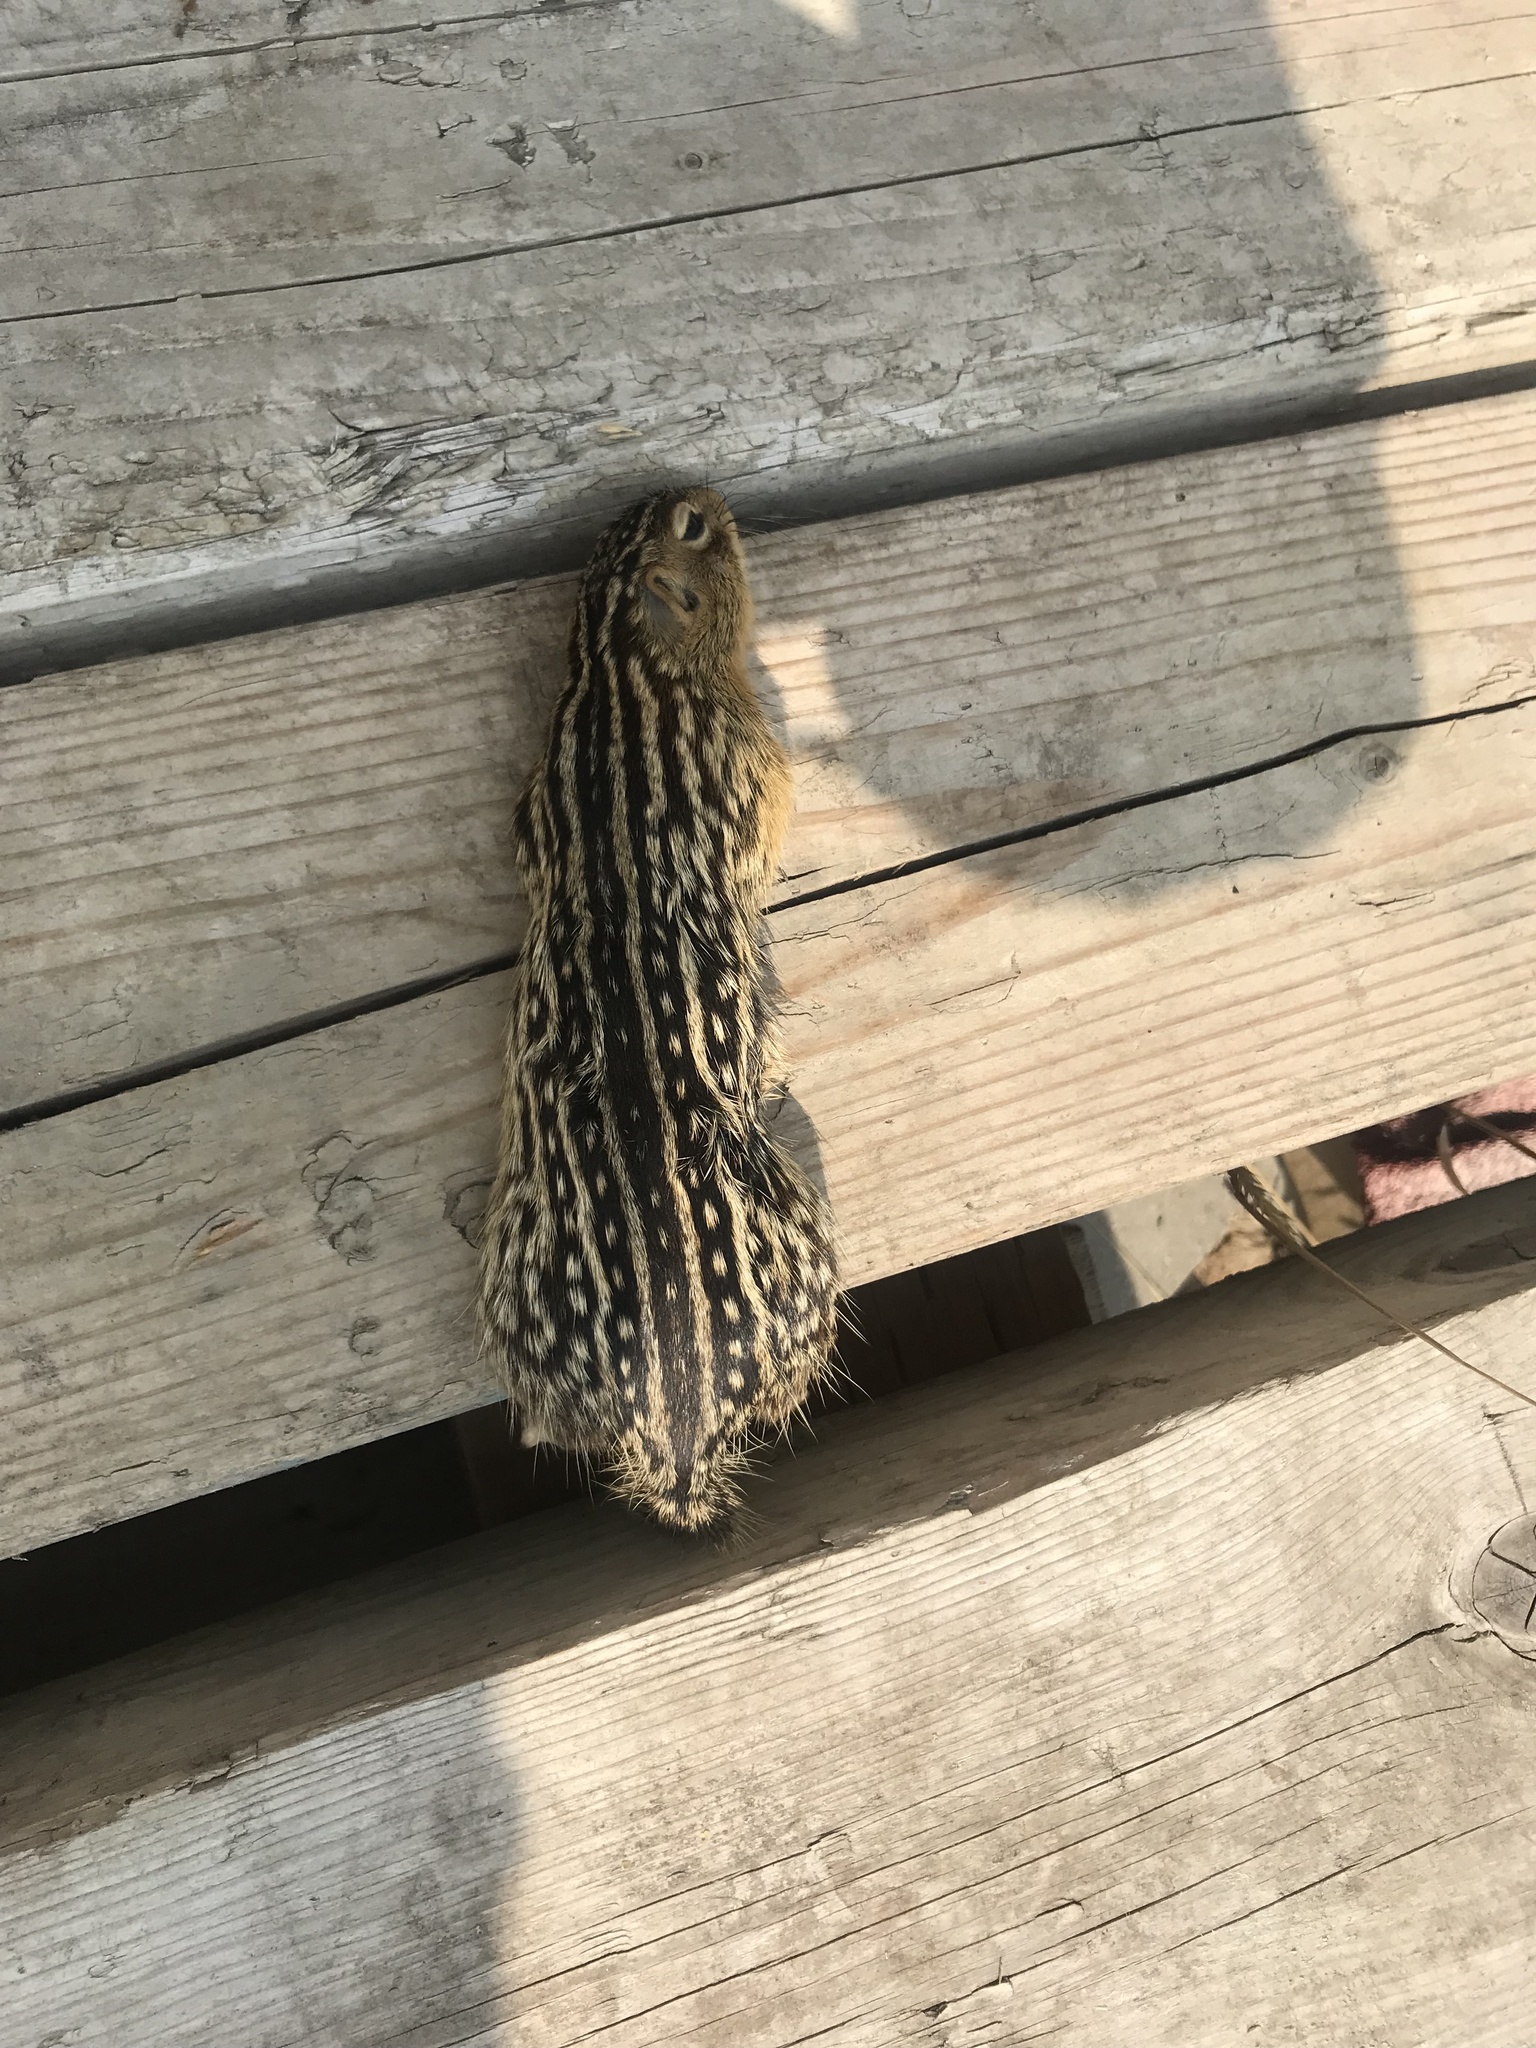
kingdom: Animalia
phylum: Chordata
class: Mammalia
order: Rodentia
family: Sciuridae
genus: Ictidomys
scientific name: Ictidomys tridecemlineatus
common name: Thirteen-lined ground squirrel
